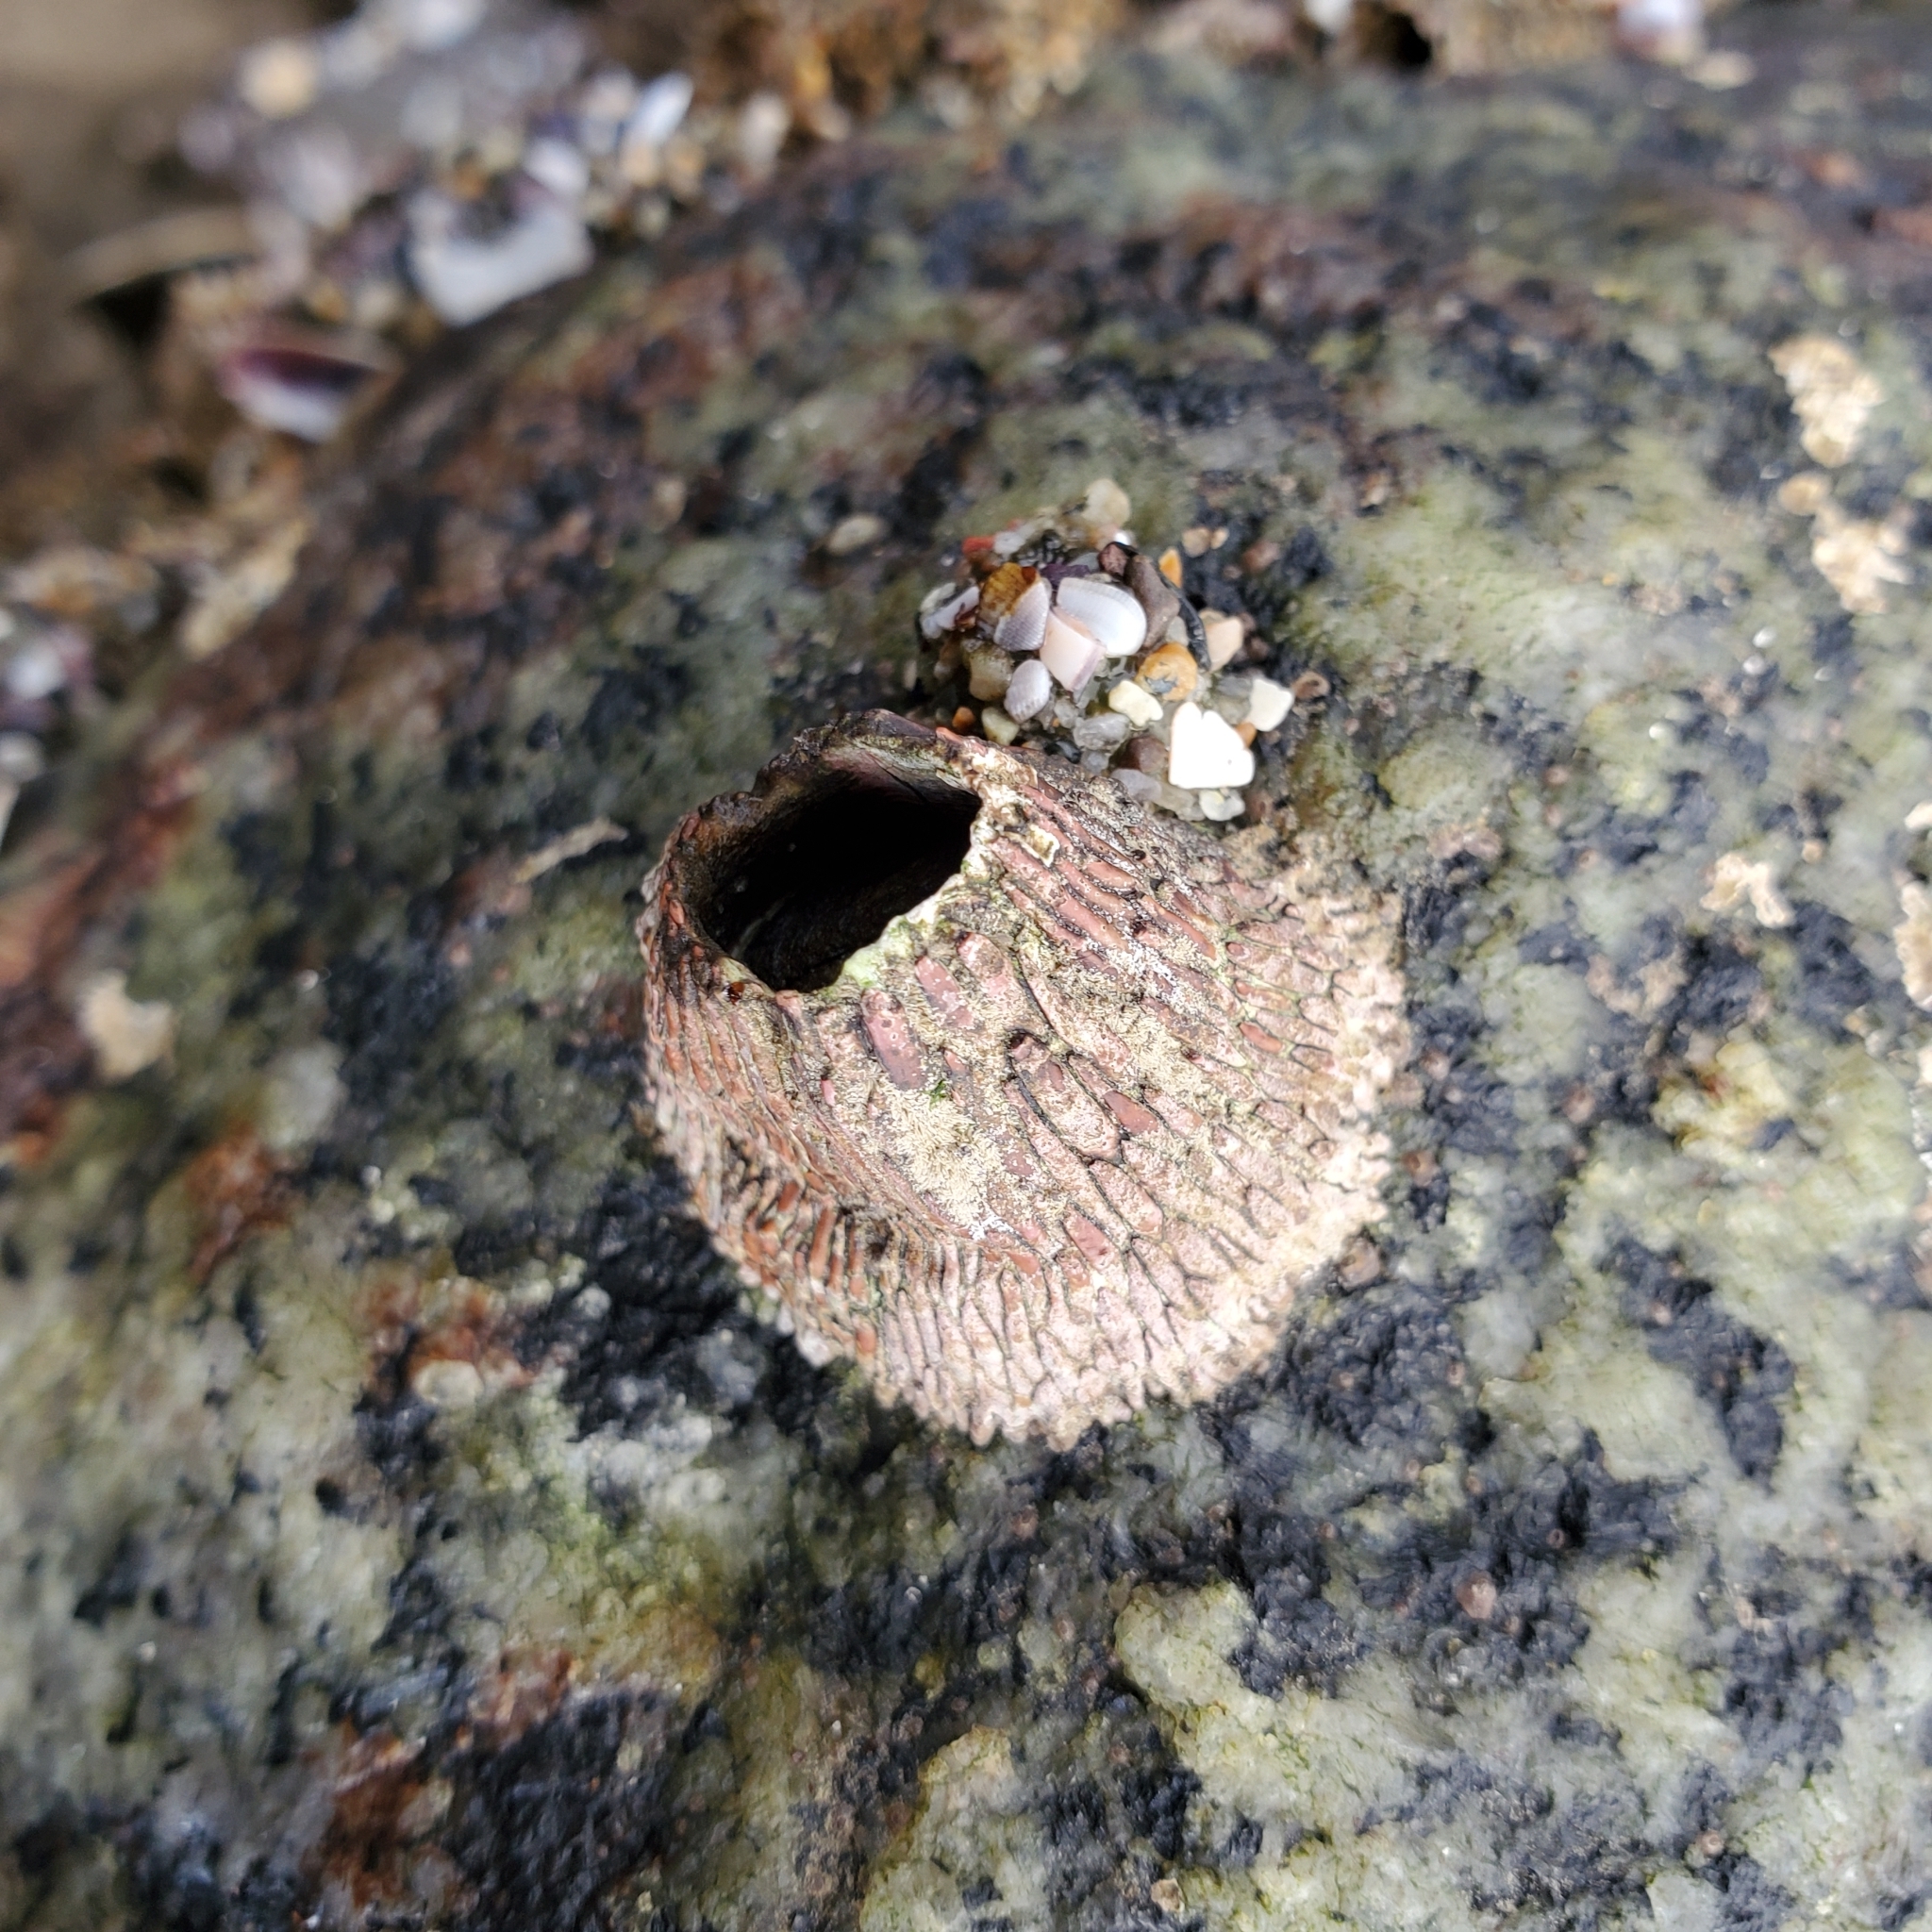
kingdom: Animalia
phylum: Arthropoda
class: Maxillopoda
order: Sessilia
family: Tetraclitidae
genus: Tetraclita
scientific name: Tetraclita rubescens
